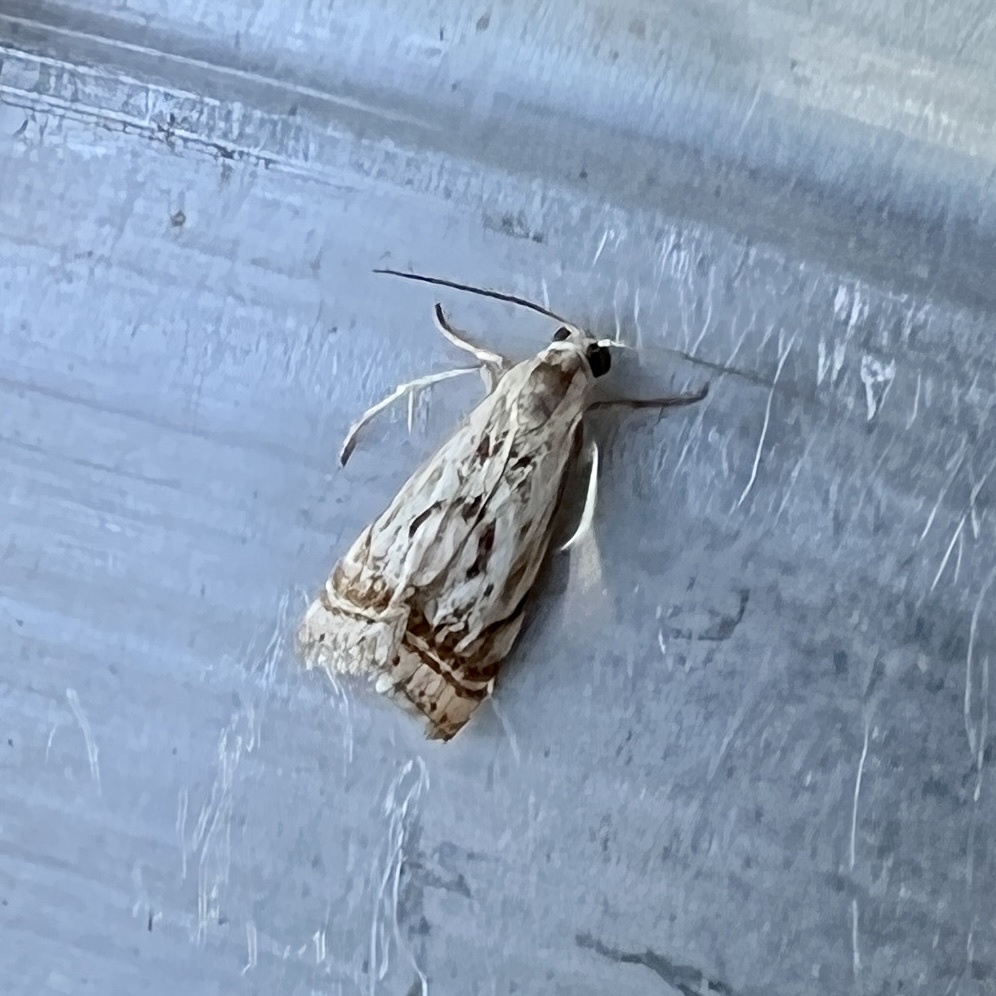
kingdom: Animalia
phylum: Arthropoda
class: Insecta
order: Lepidoptera
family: Crambidae
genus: Microcrambus
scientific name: Microcrambus elegans
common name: Elegant grass-veneer
